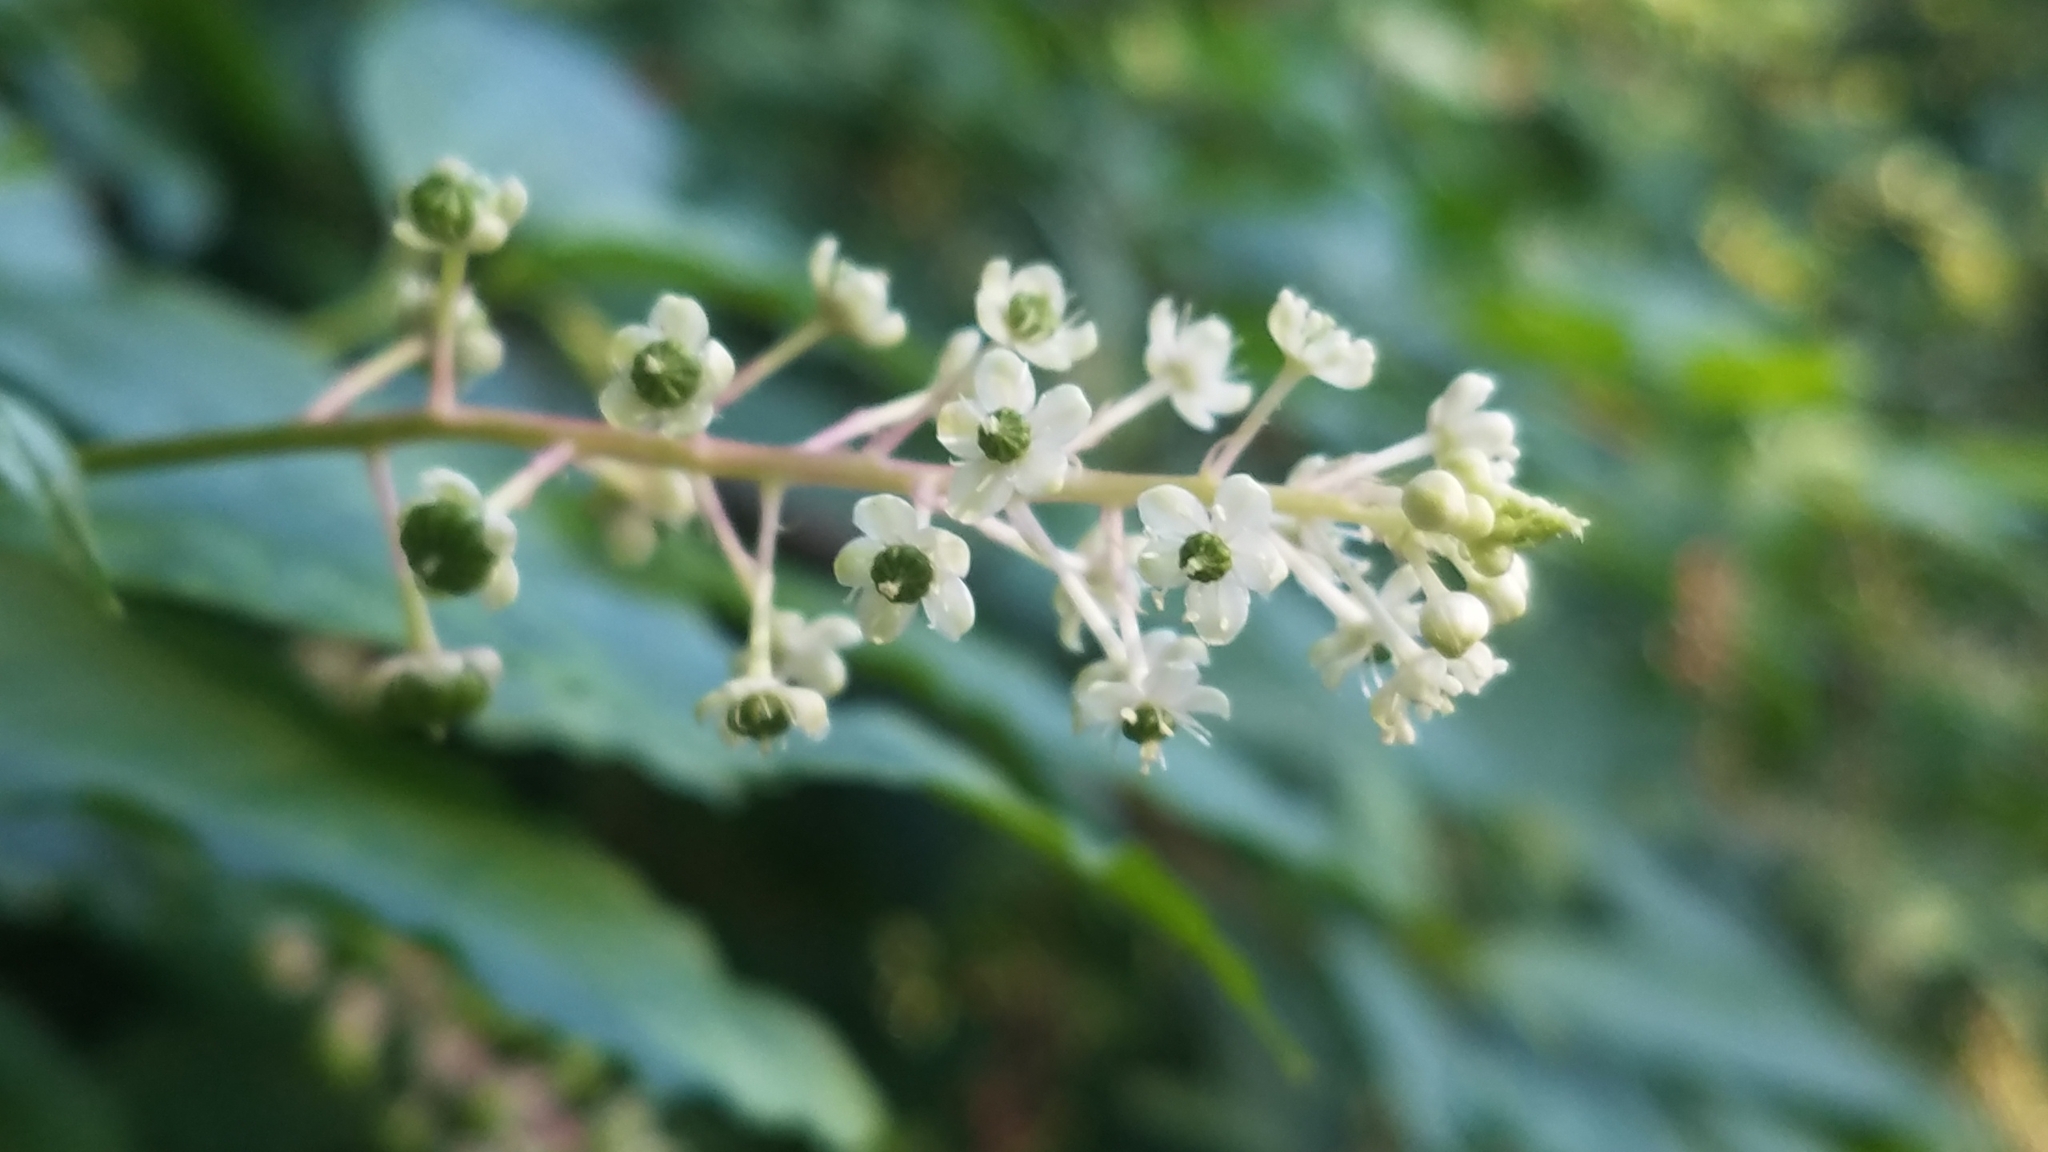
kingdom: Plantae
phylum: Tracheophyta
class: Magnoliopsida
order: Caryophyllales
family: Phytolaccaceae
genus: Phytolacca
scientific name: Phytolacca americana
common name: American pokeweed
